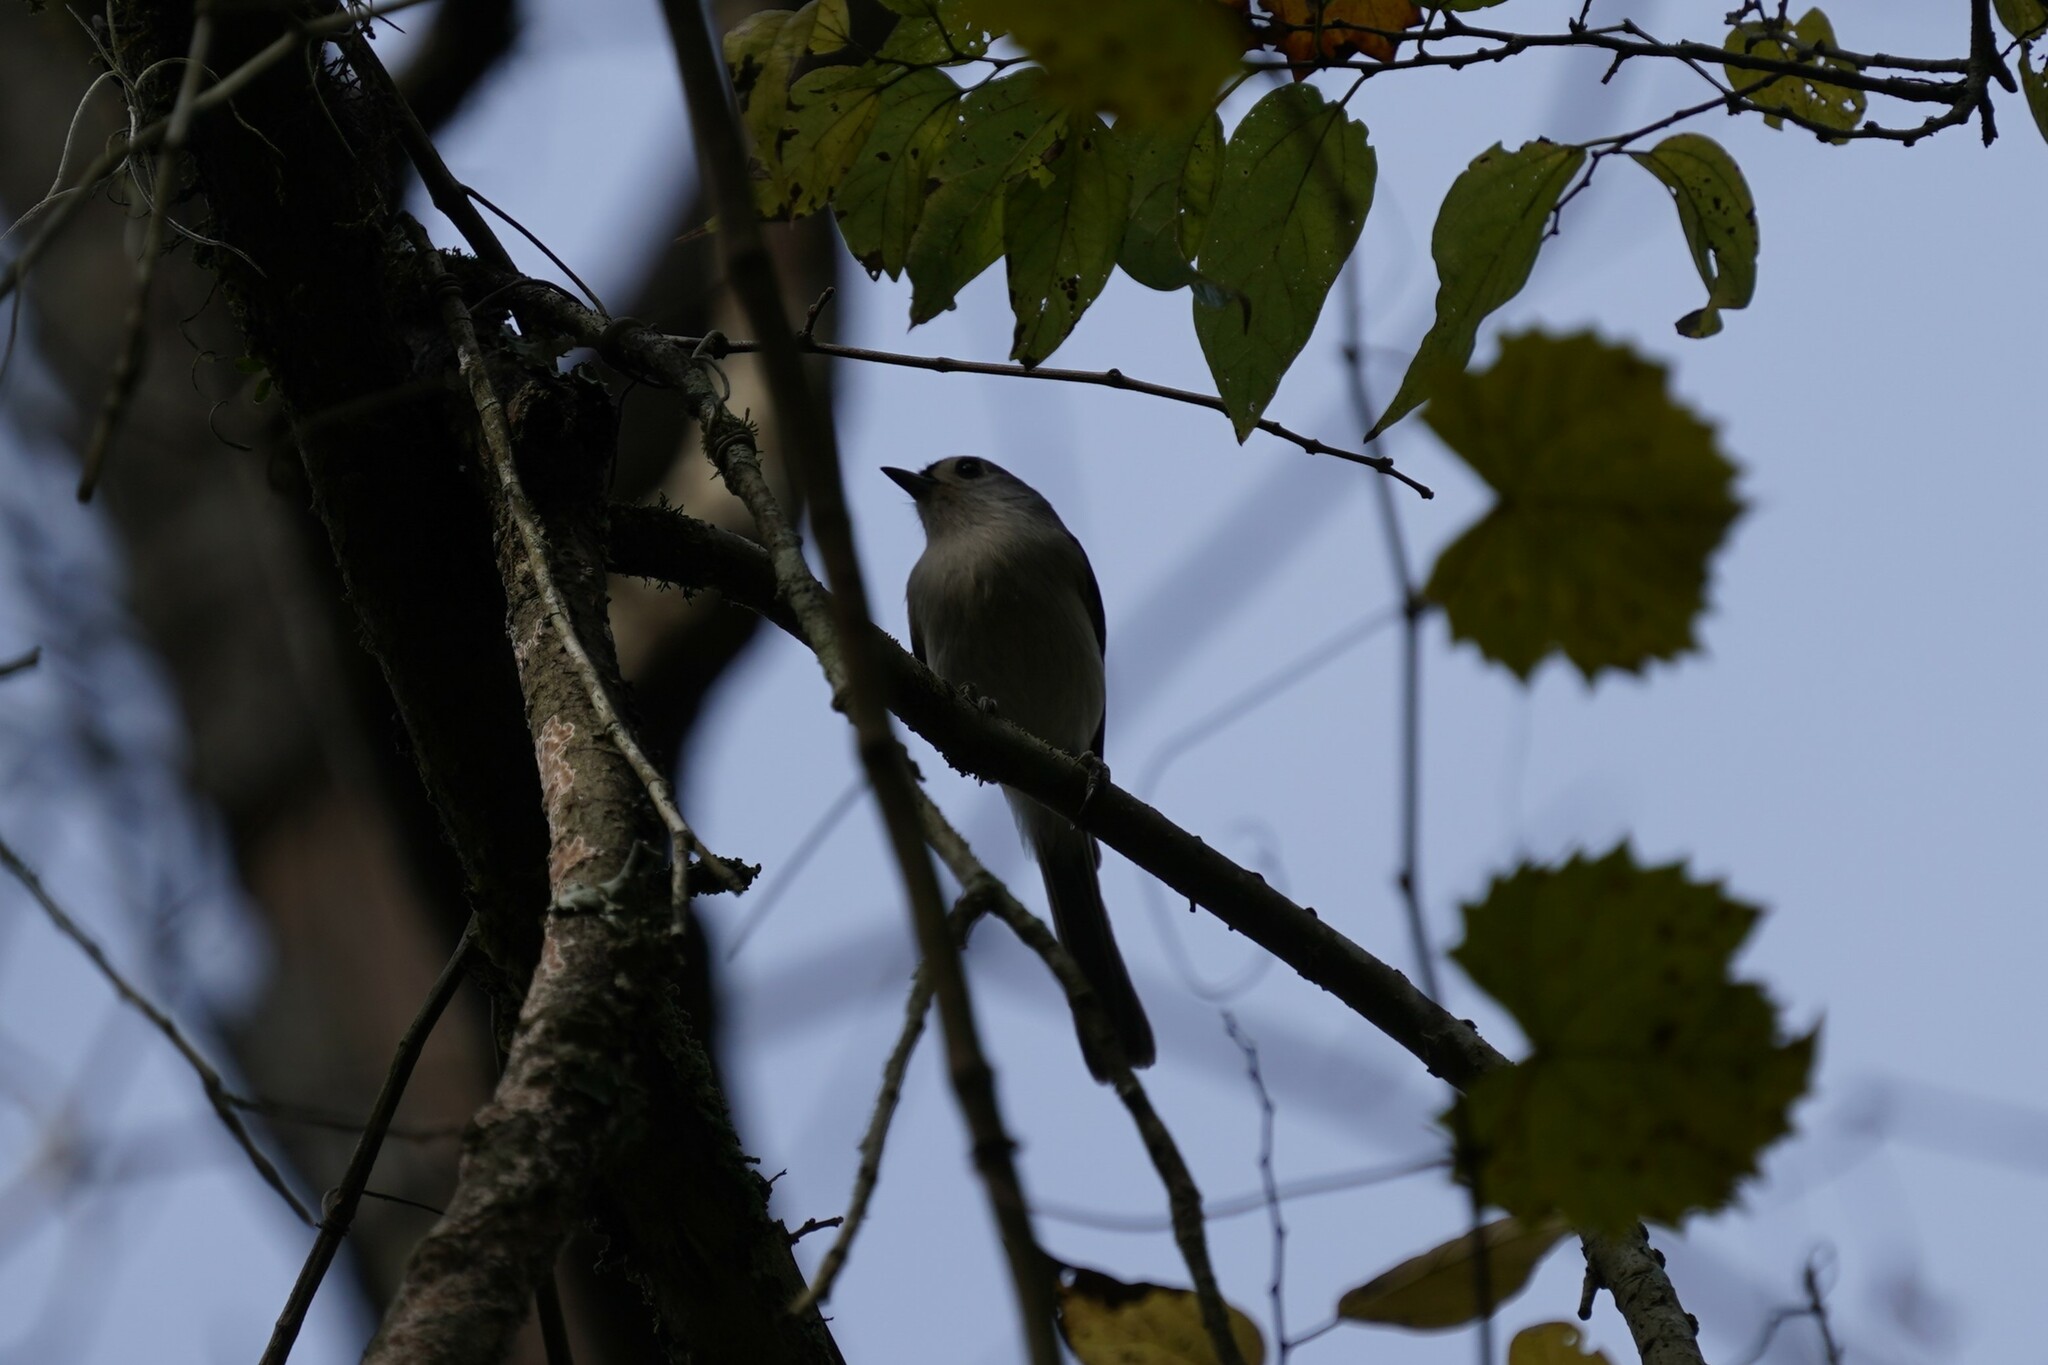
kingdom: Animalia
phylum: Chordata
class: Aves
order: Passeriformes
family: Paridae
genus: Baeolophus
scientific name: Baeolophus bicolor
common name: Tufted titmouse
